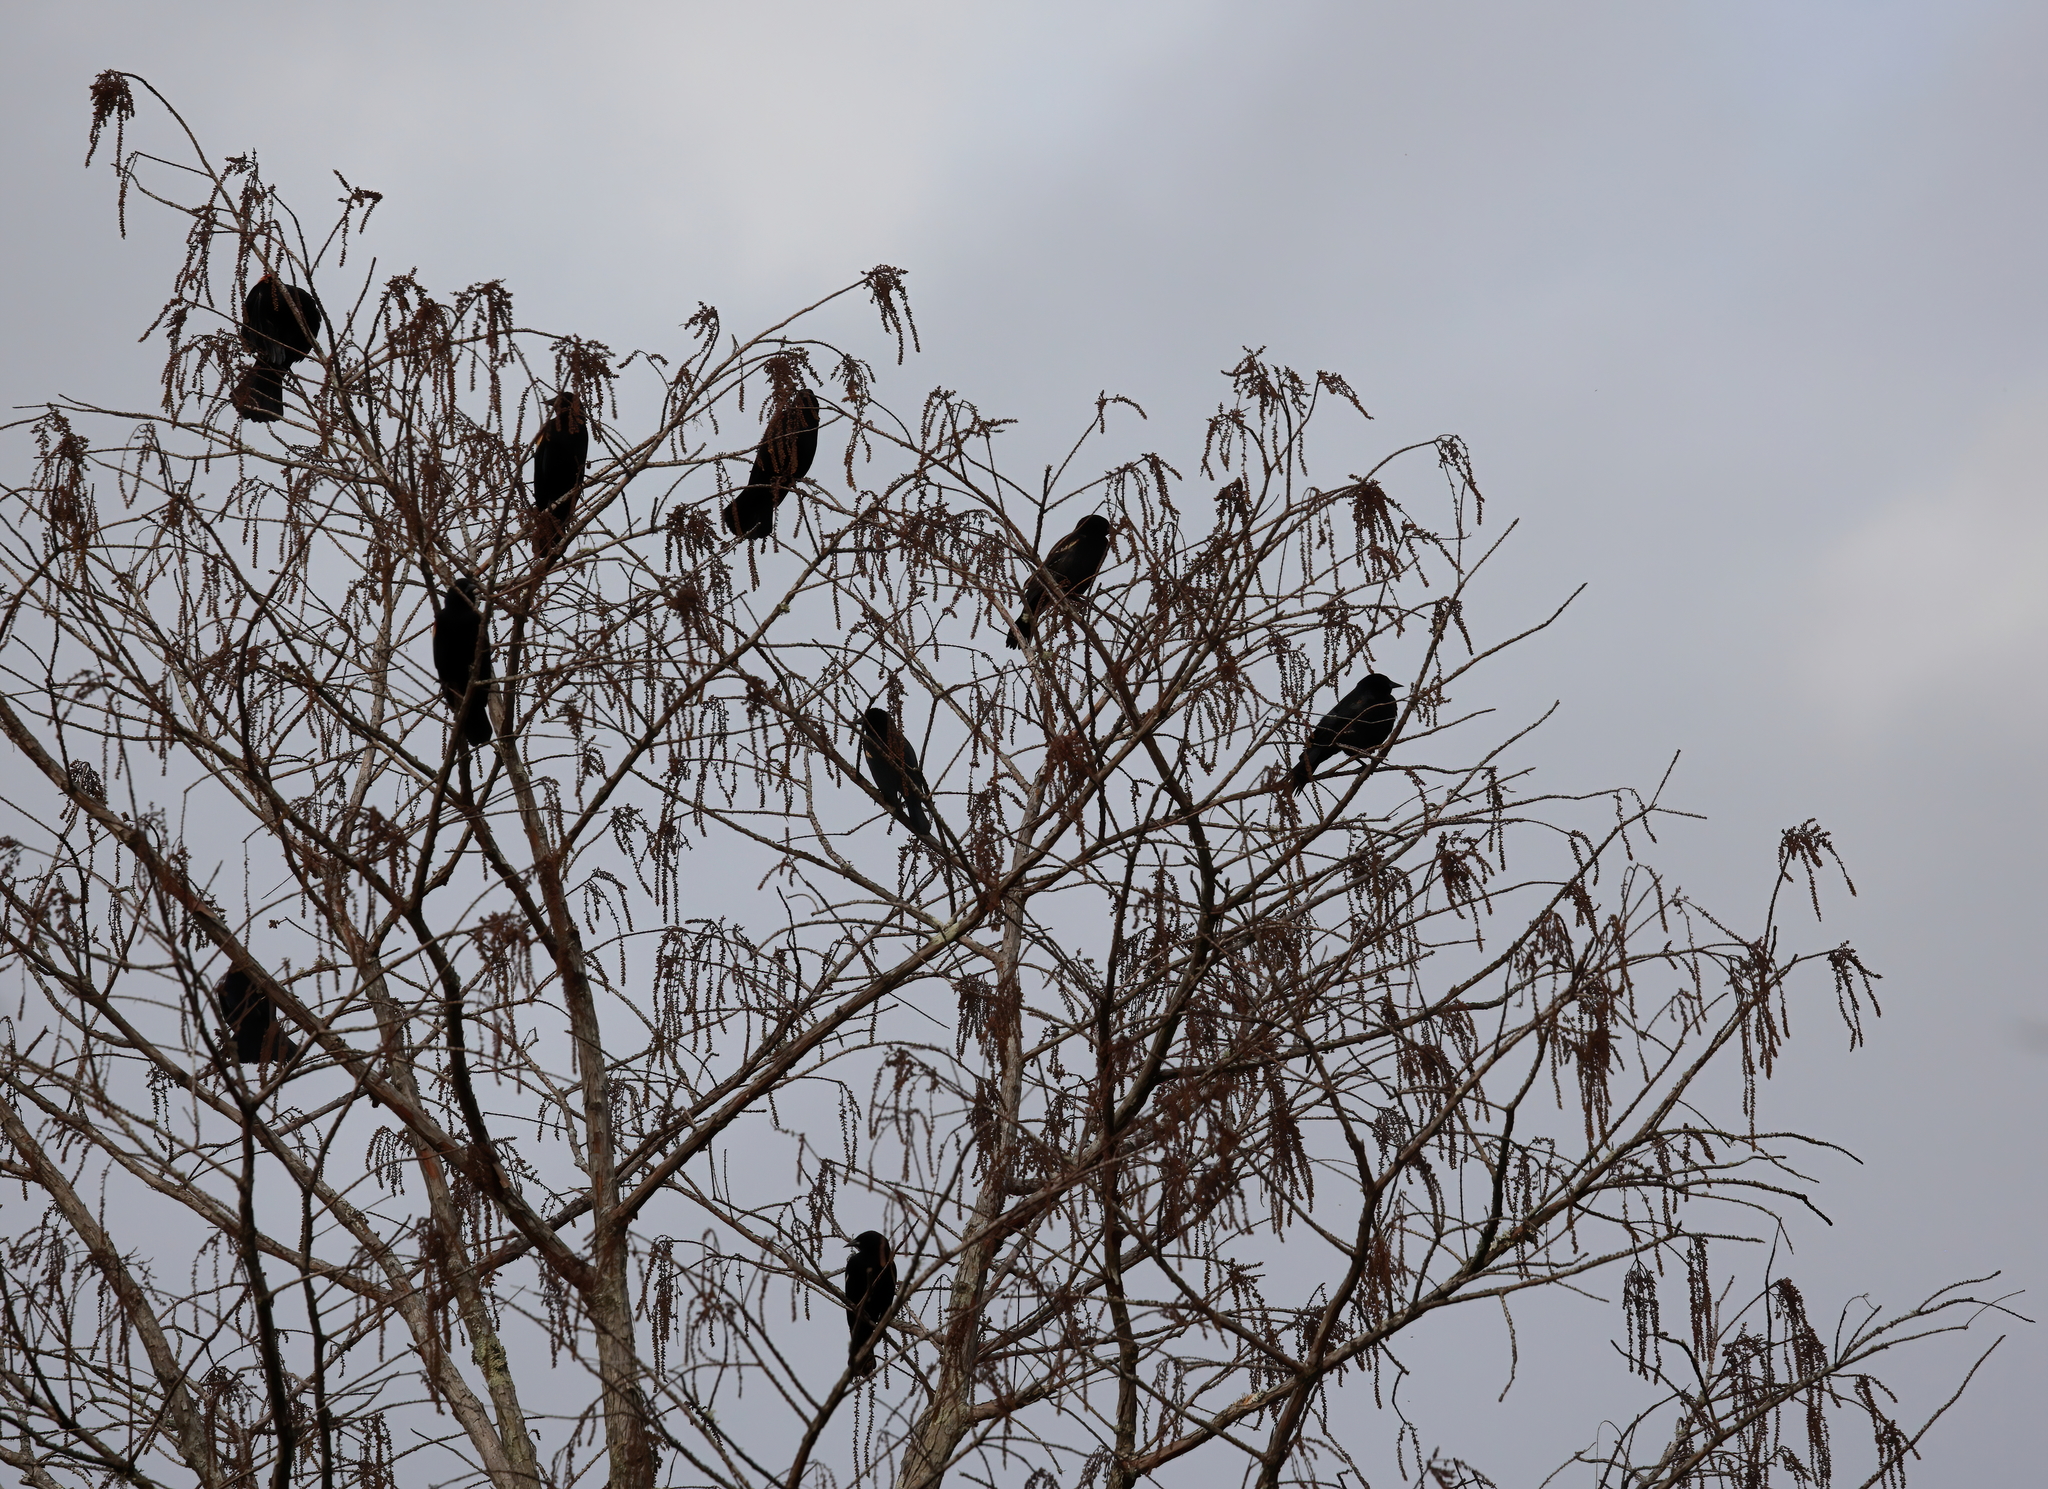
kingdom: Animalia
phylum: Chordata
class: Aves
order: Passeriformes
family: Icteridae
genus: Agelaius
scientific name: Agelaius phoeniceus
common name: Red-winged blackbird
